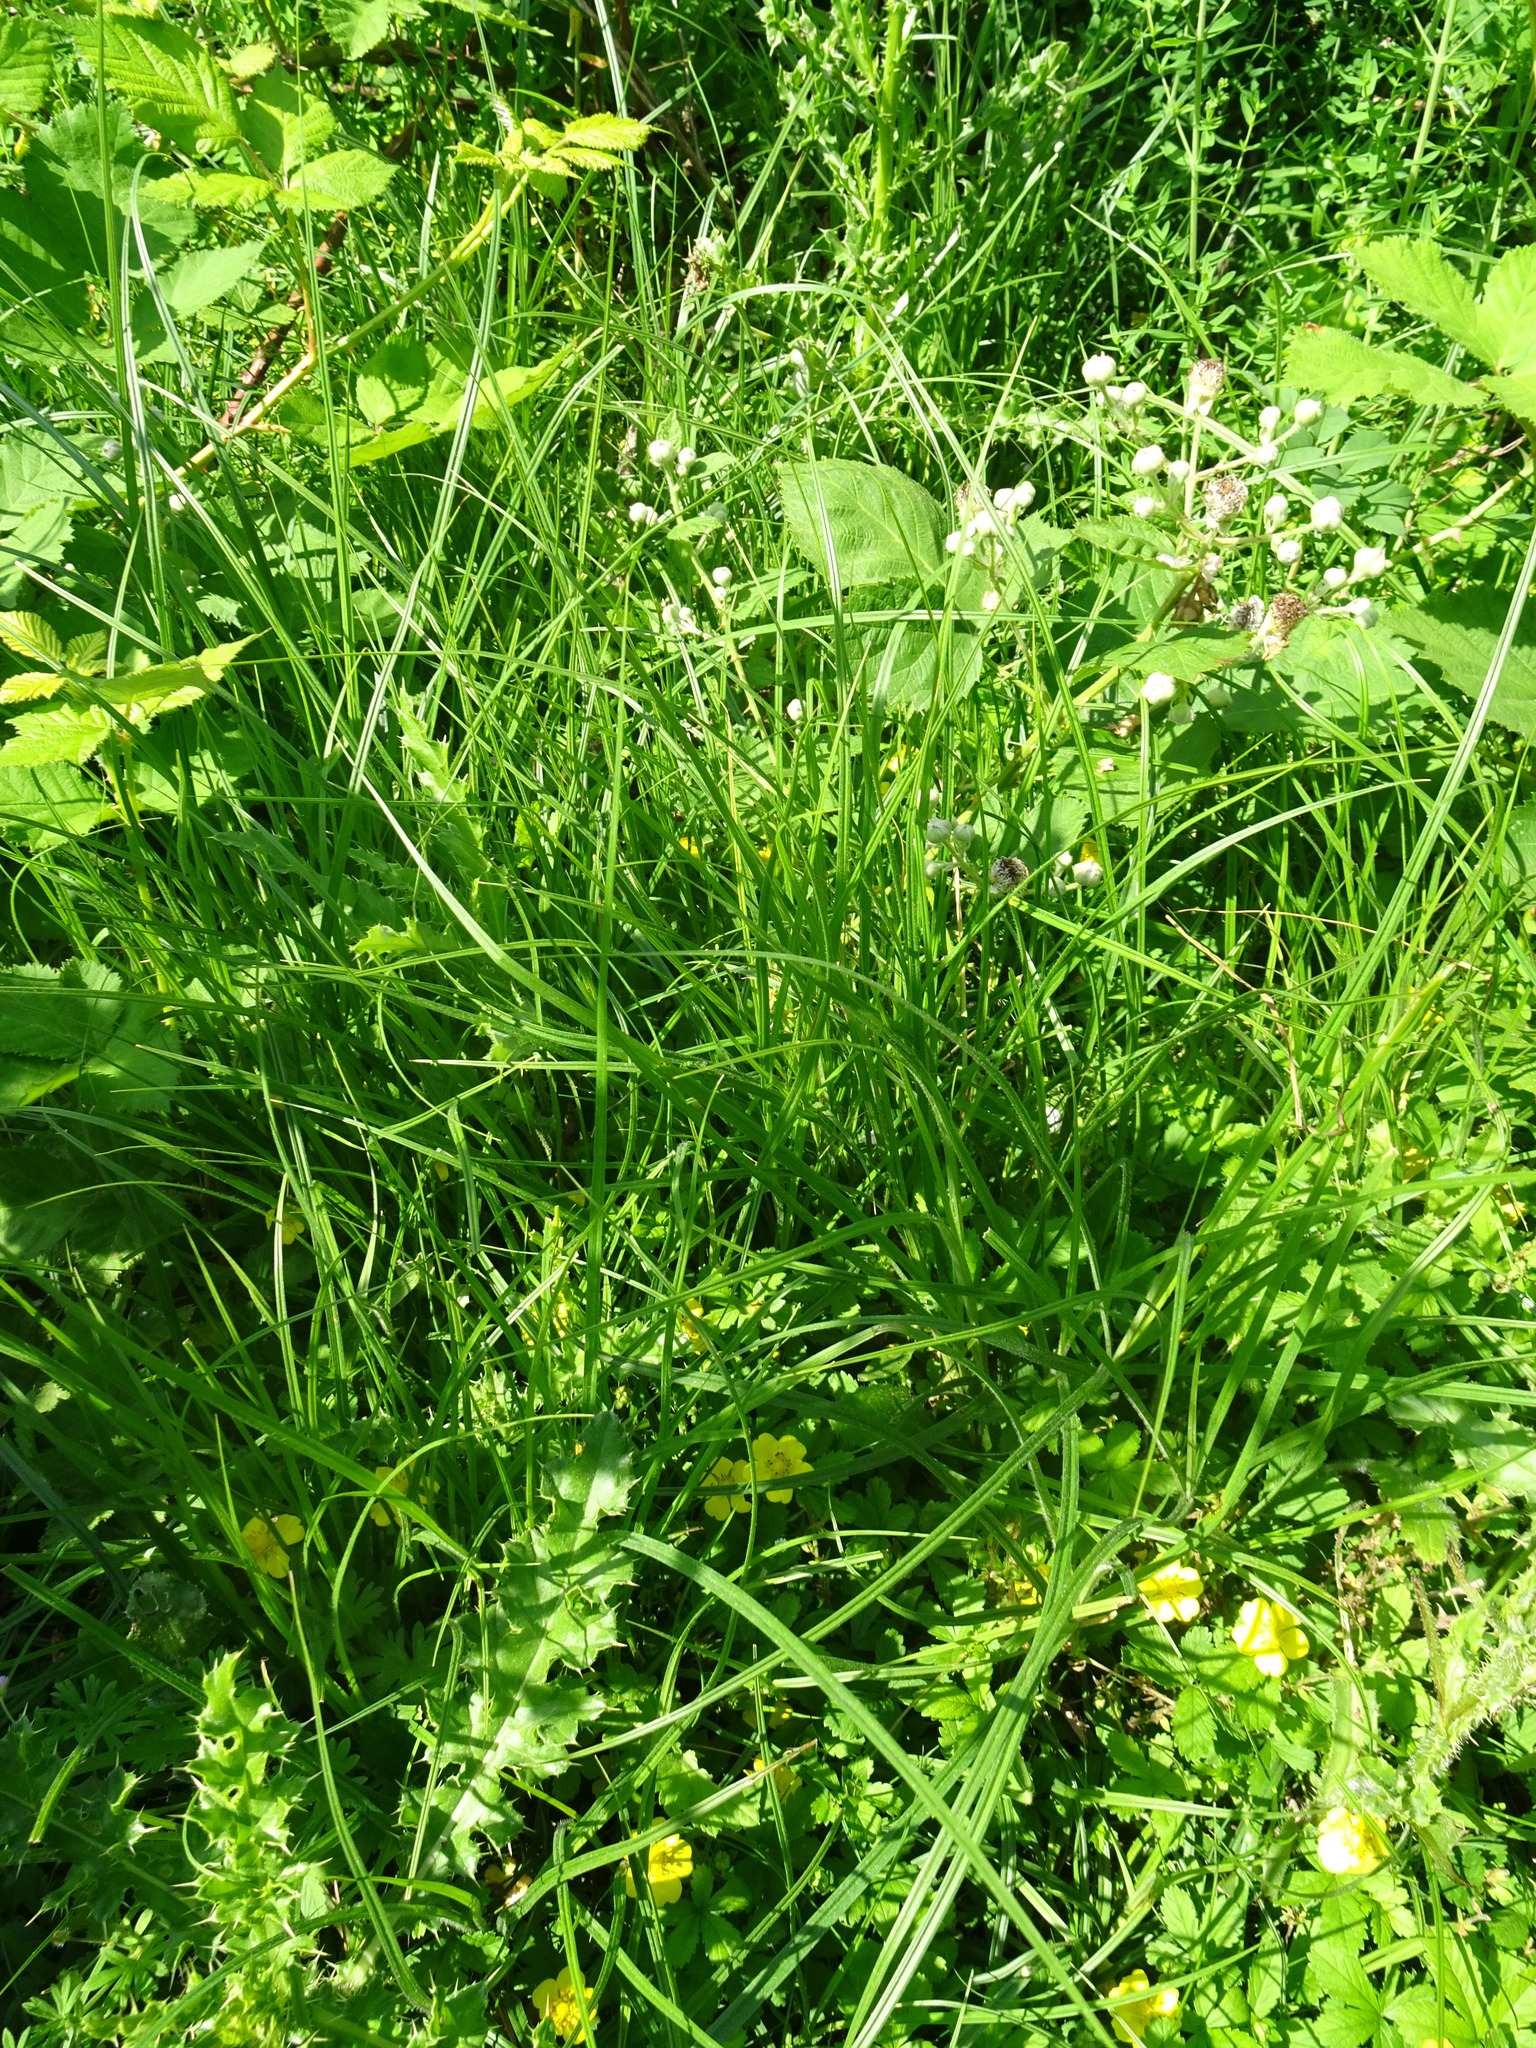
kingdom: Plantae
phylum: Tracheophyta
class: Liliopsida
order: Poales
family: Cyperaceae
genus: Carex
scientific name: Carex hirta
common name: Hairy sedge
